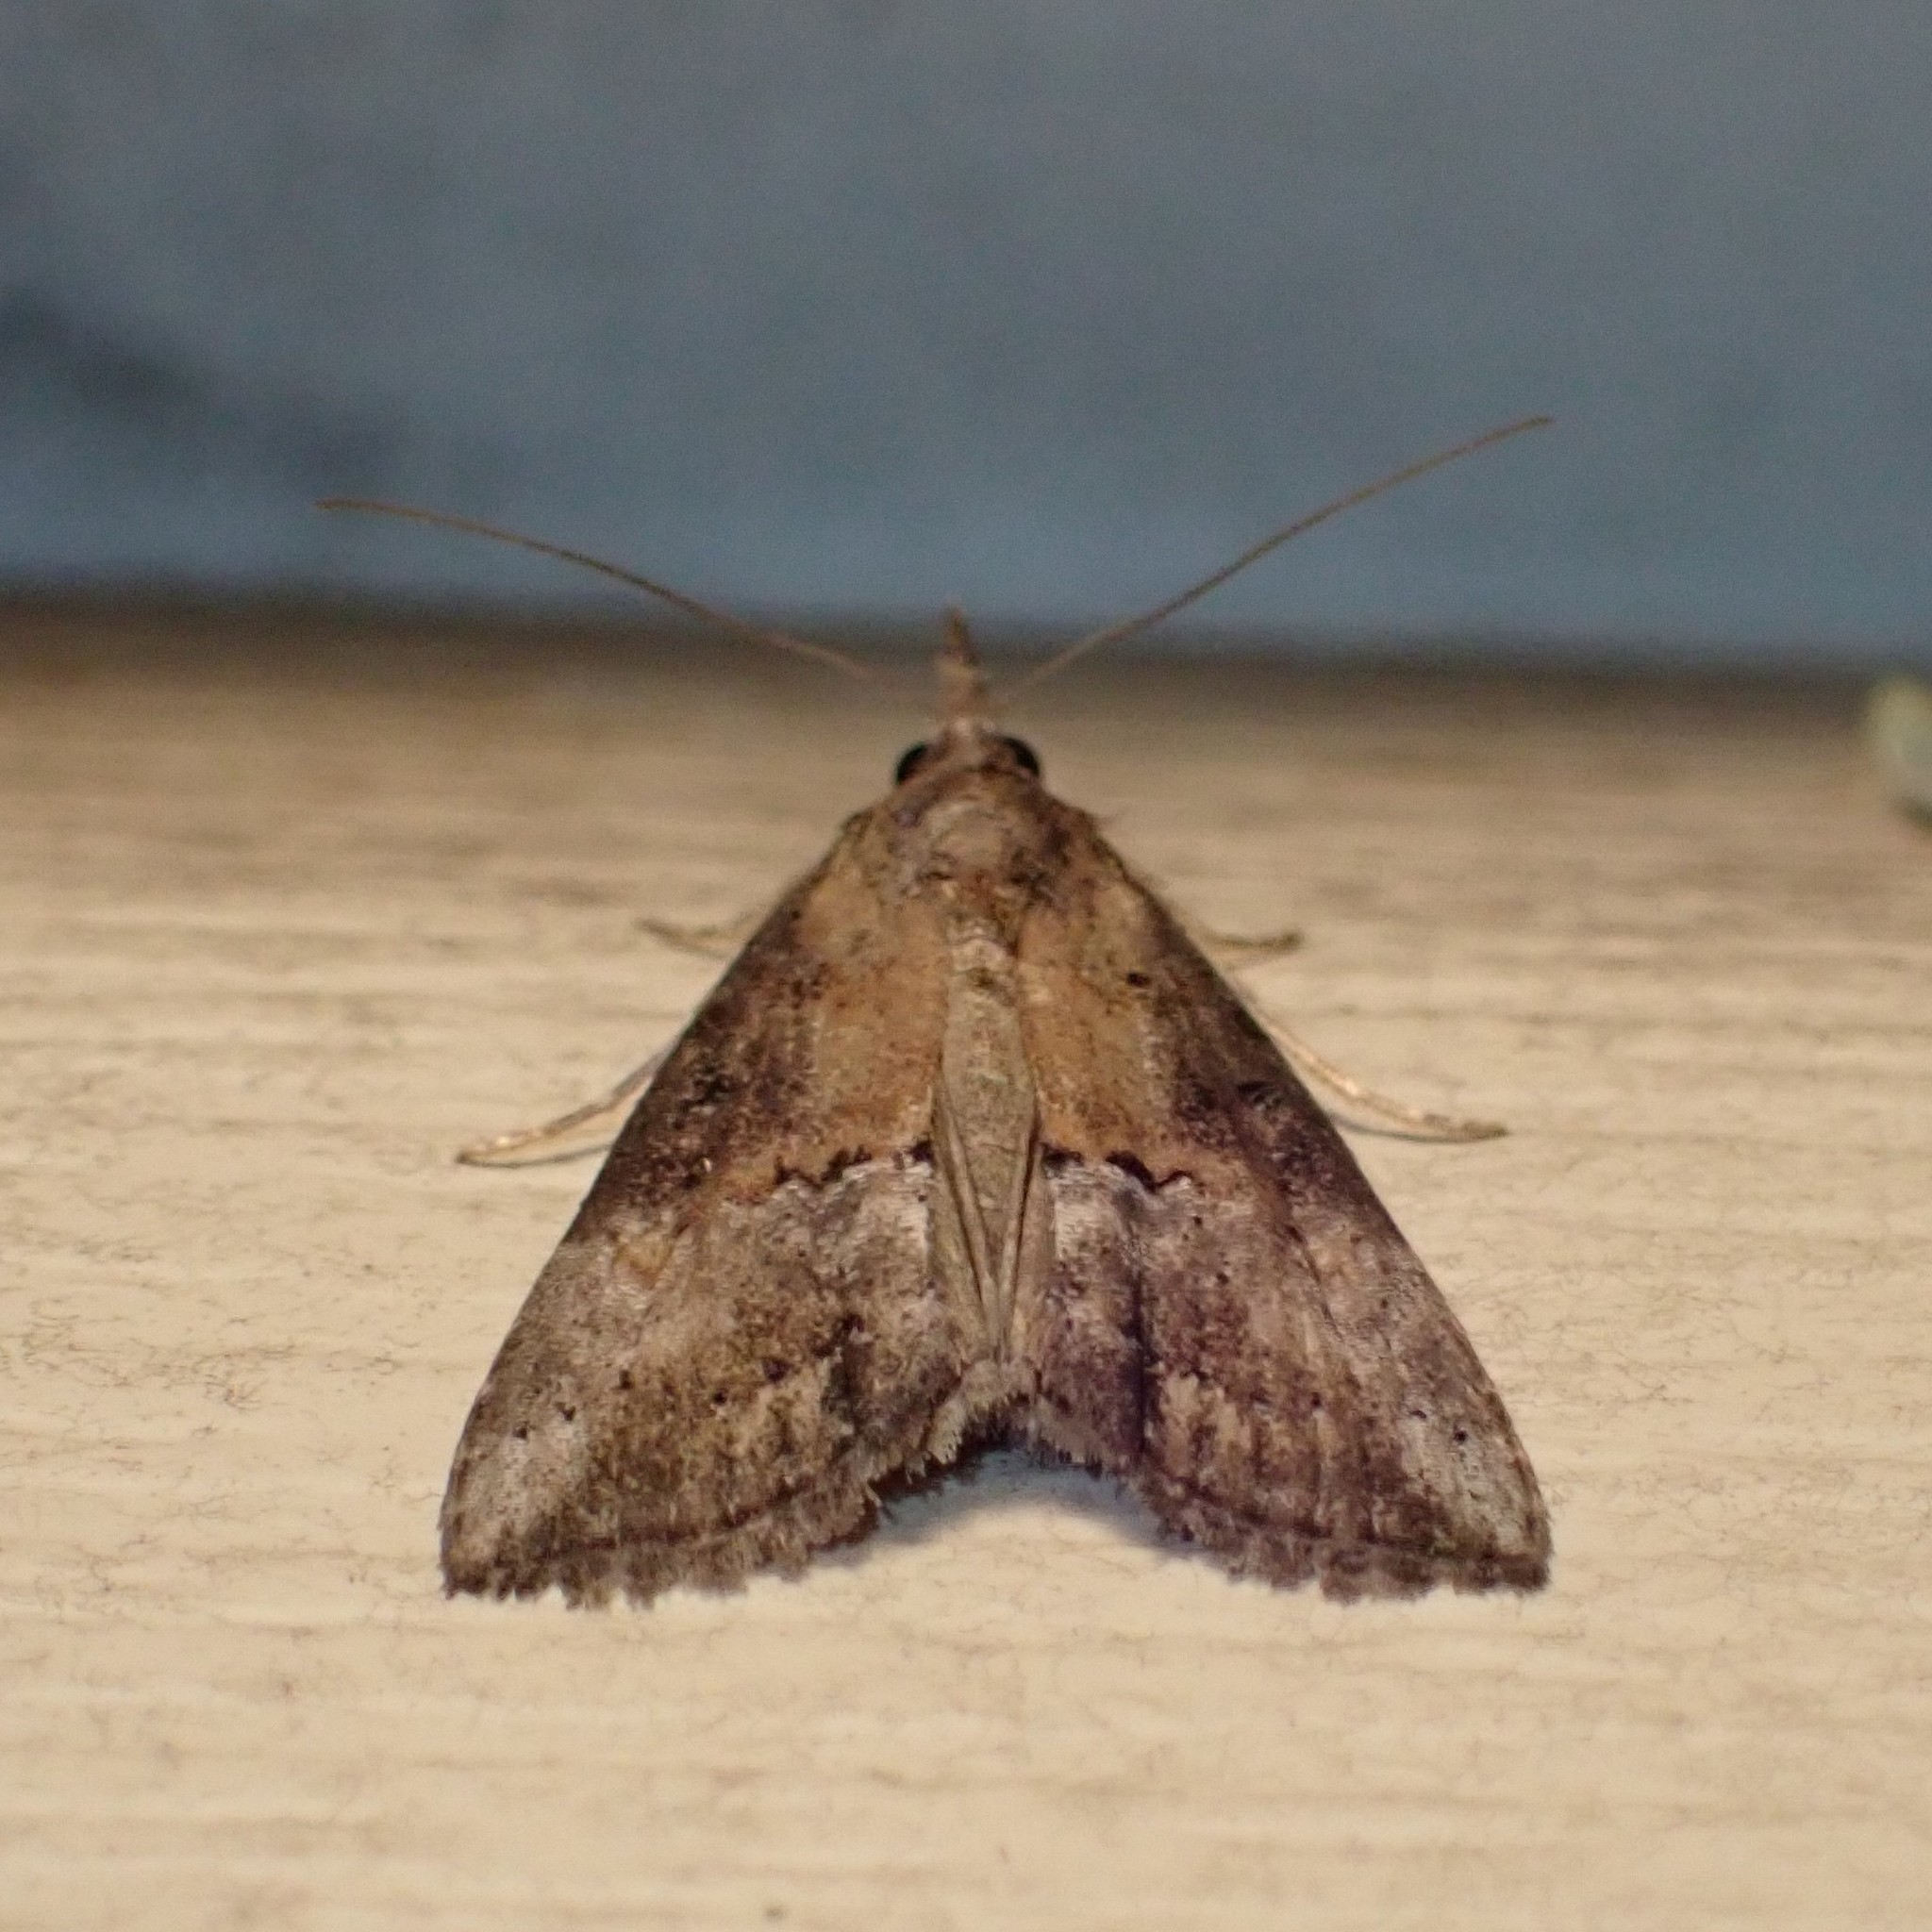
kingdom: Animalia
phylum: Arthropoda
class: Insecta
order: Lepidoptera
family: Erebidae
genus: Hypena
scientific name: Hypena scabra
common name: Green cloverworm
